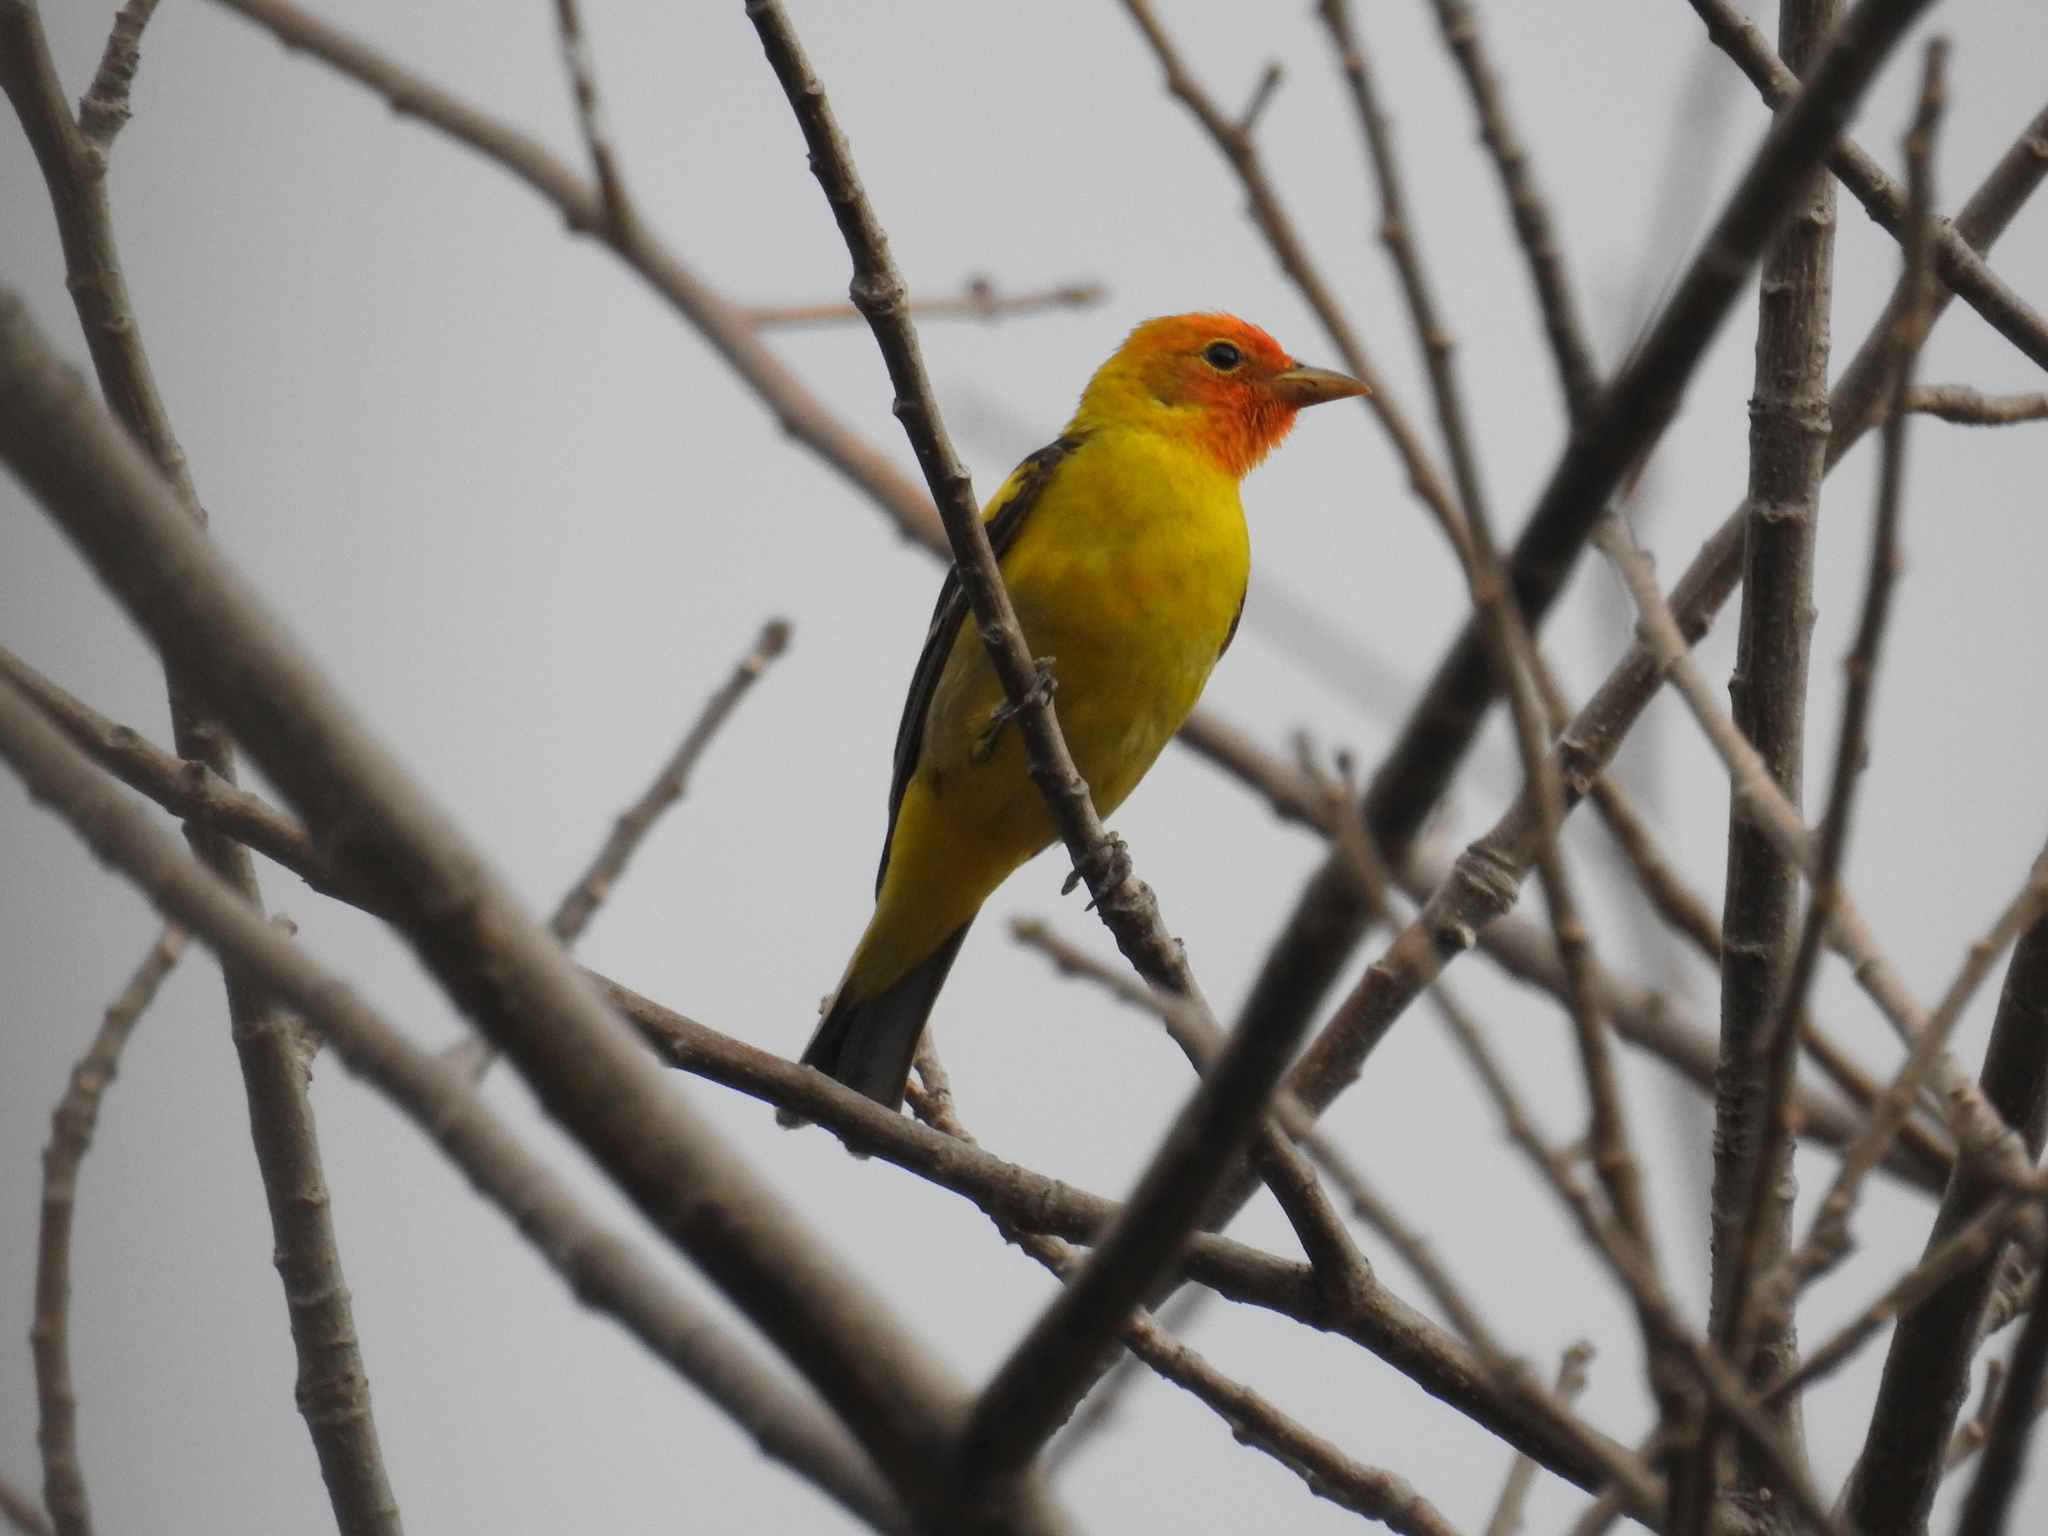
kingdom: Animalia
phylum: Chordata
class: Aves
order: Passeriformes
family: Cardinalidae
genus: Piranga
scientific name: Piranga ludoviciana
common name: Western tanager
